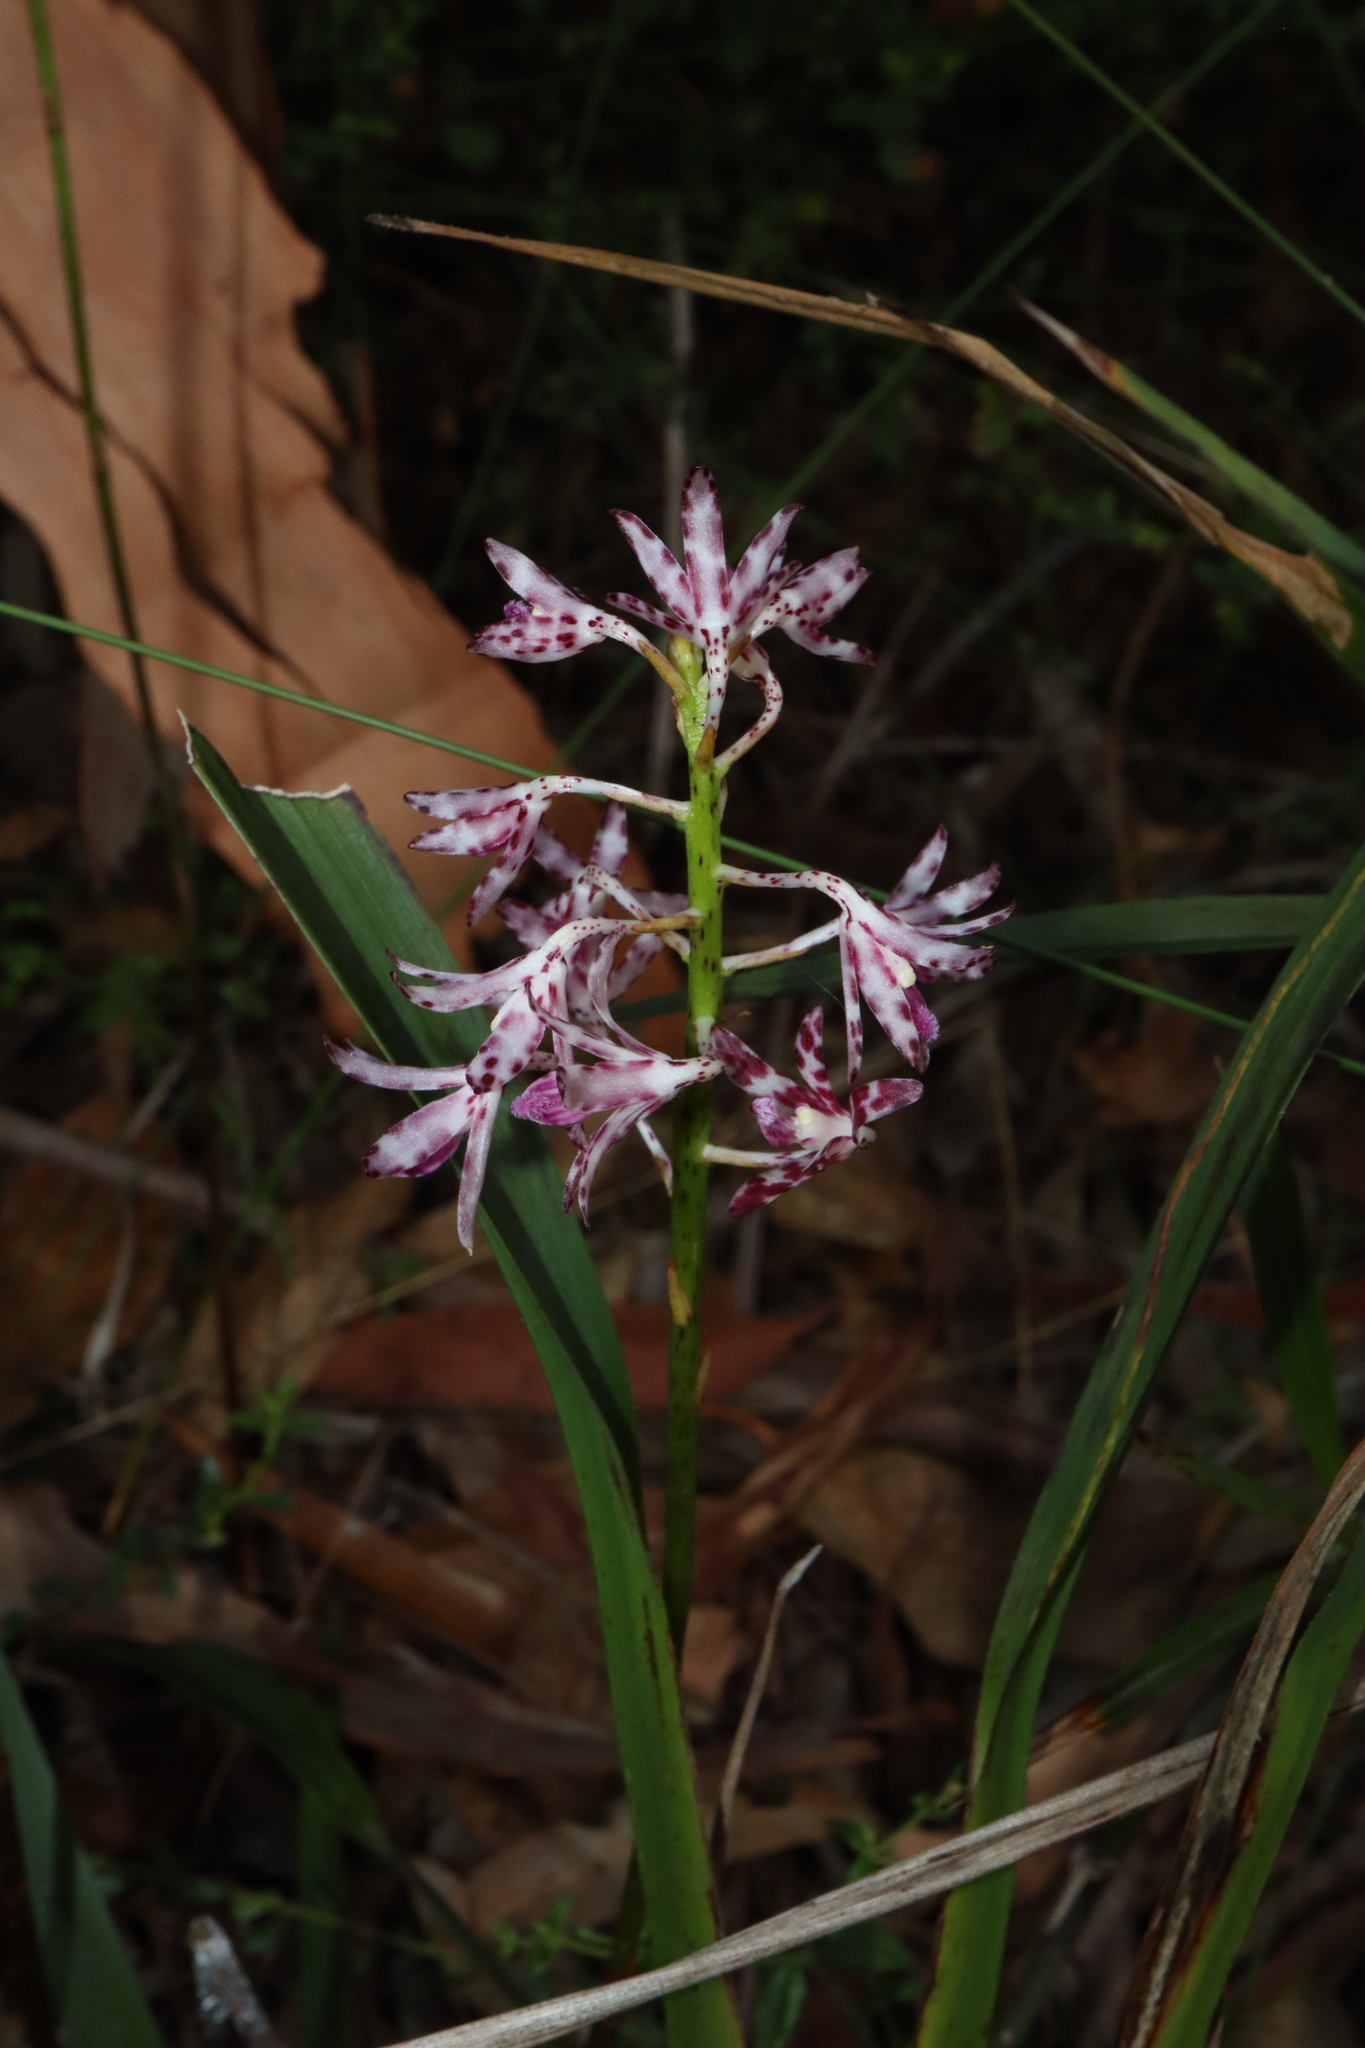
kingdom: Plantae
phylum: Tracheophyta
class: Liliopsida
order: Asparagales
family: Orchidaceae
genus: Dipodium
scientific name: Dipodium variegatum
